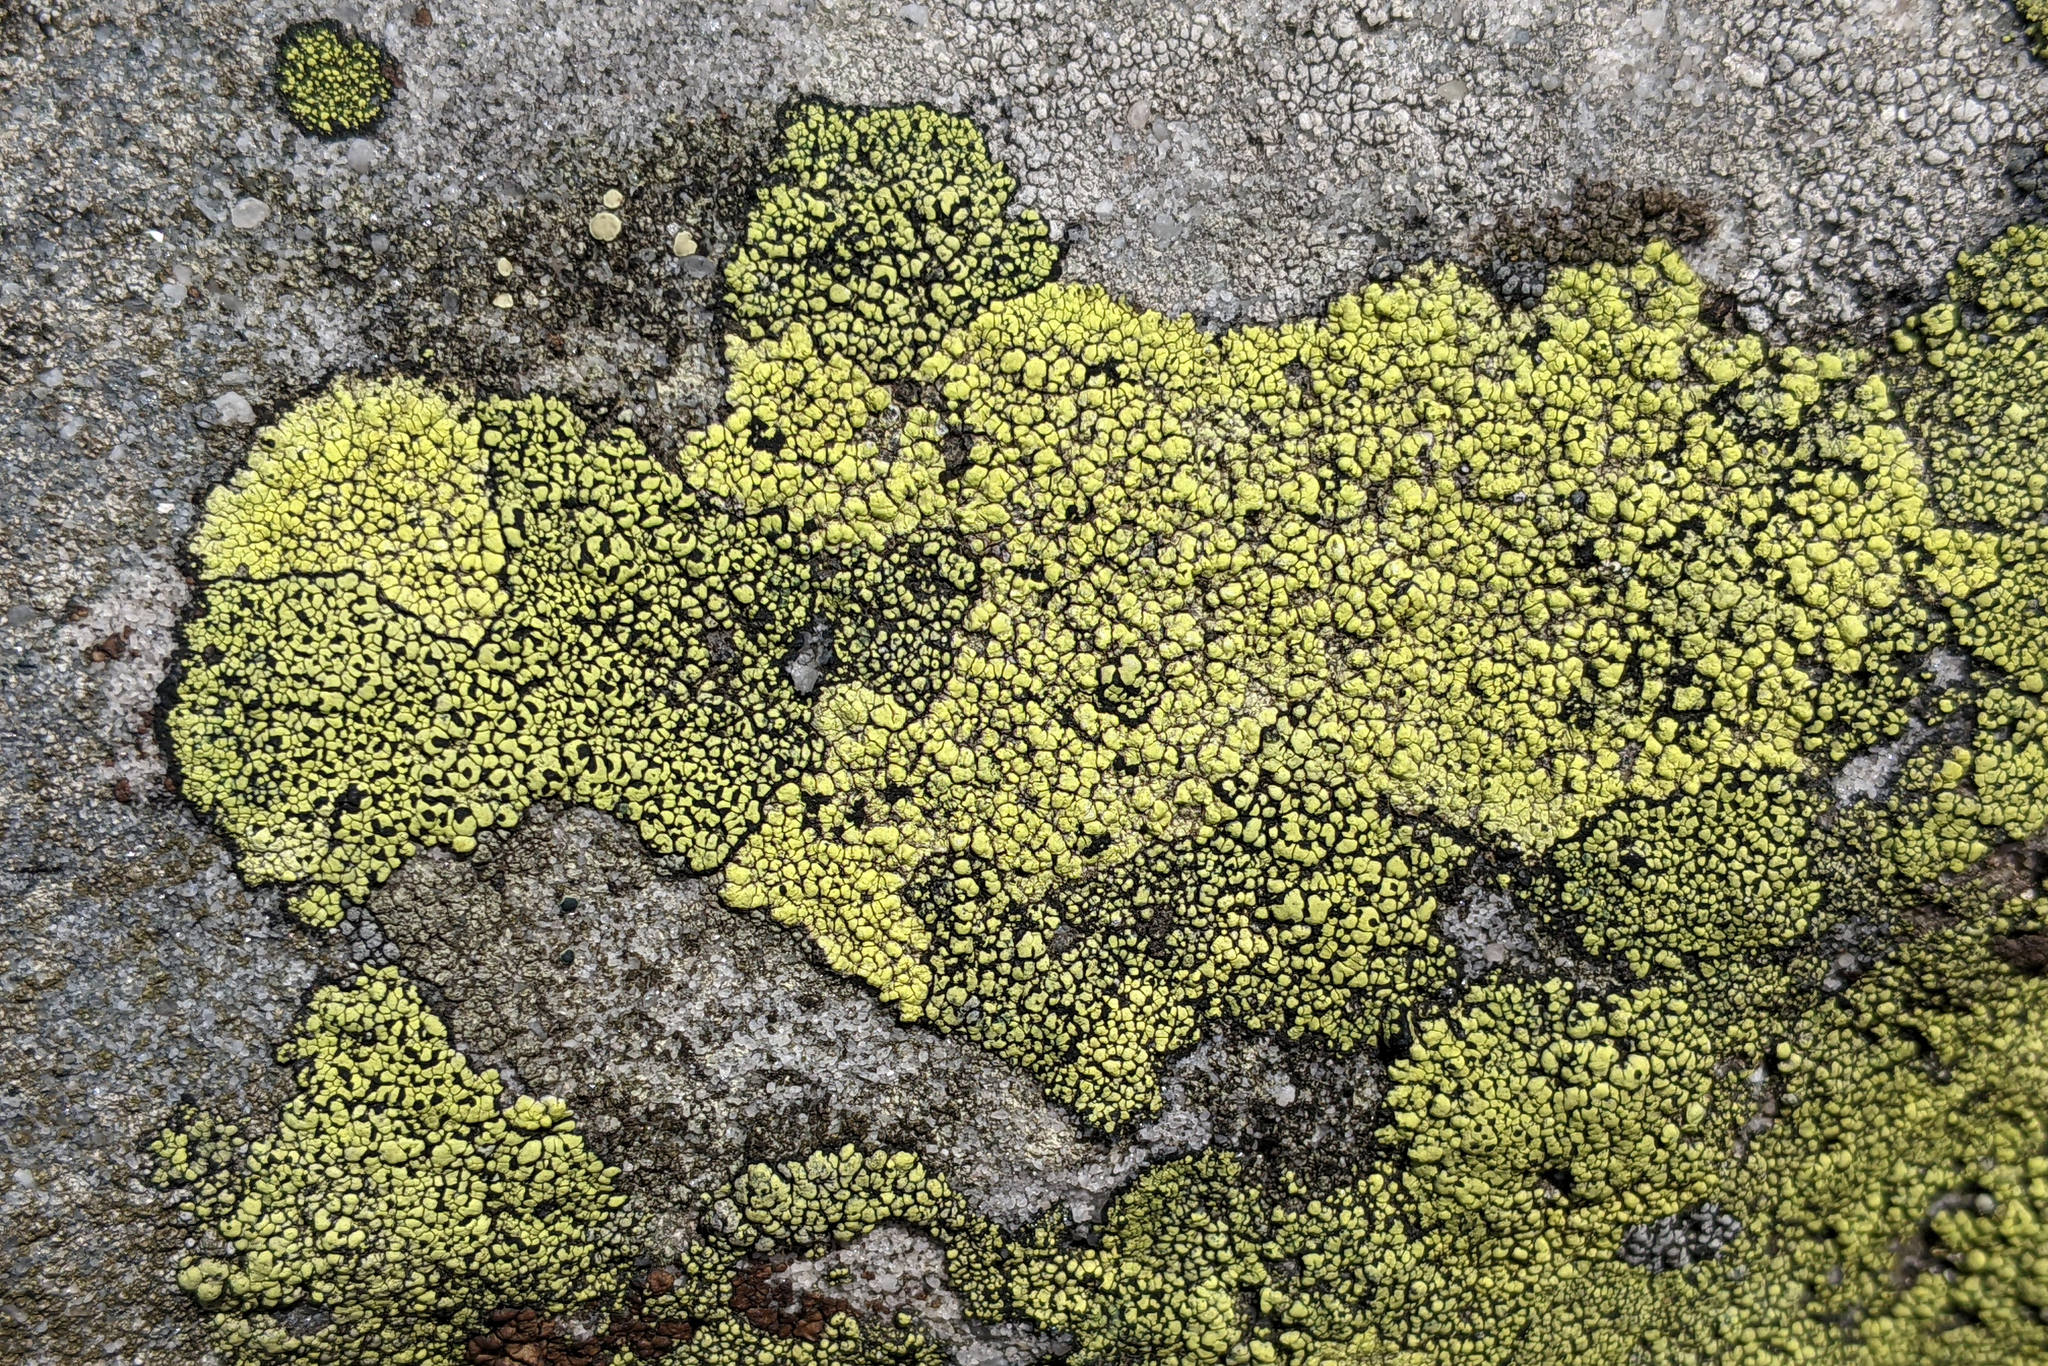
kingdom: Fungi
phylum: Ascomycota
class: Lecanoromycetes
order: Rhizocarpales
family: Rhizocarpaceae
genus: Rhizocarpon
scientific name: Rhizocarpon geographicum
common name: Yellow map lichen
